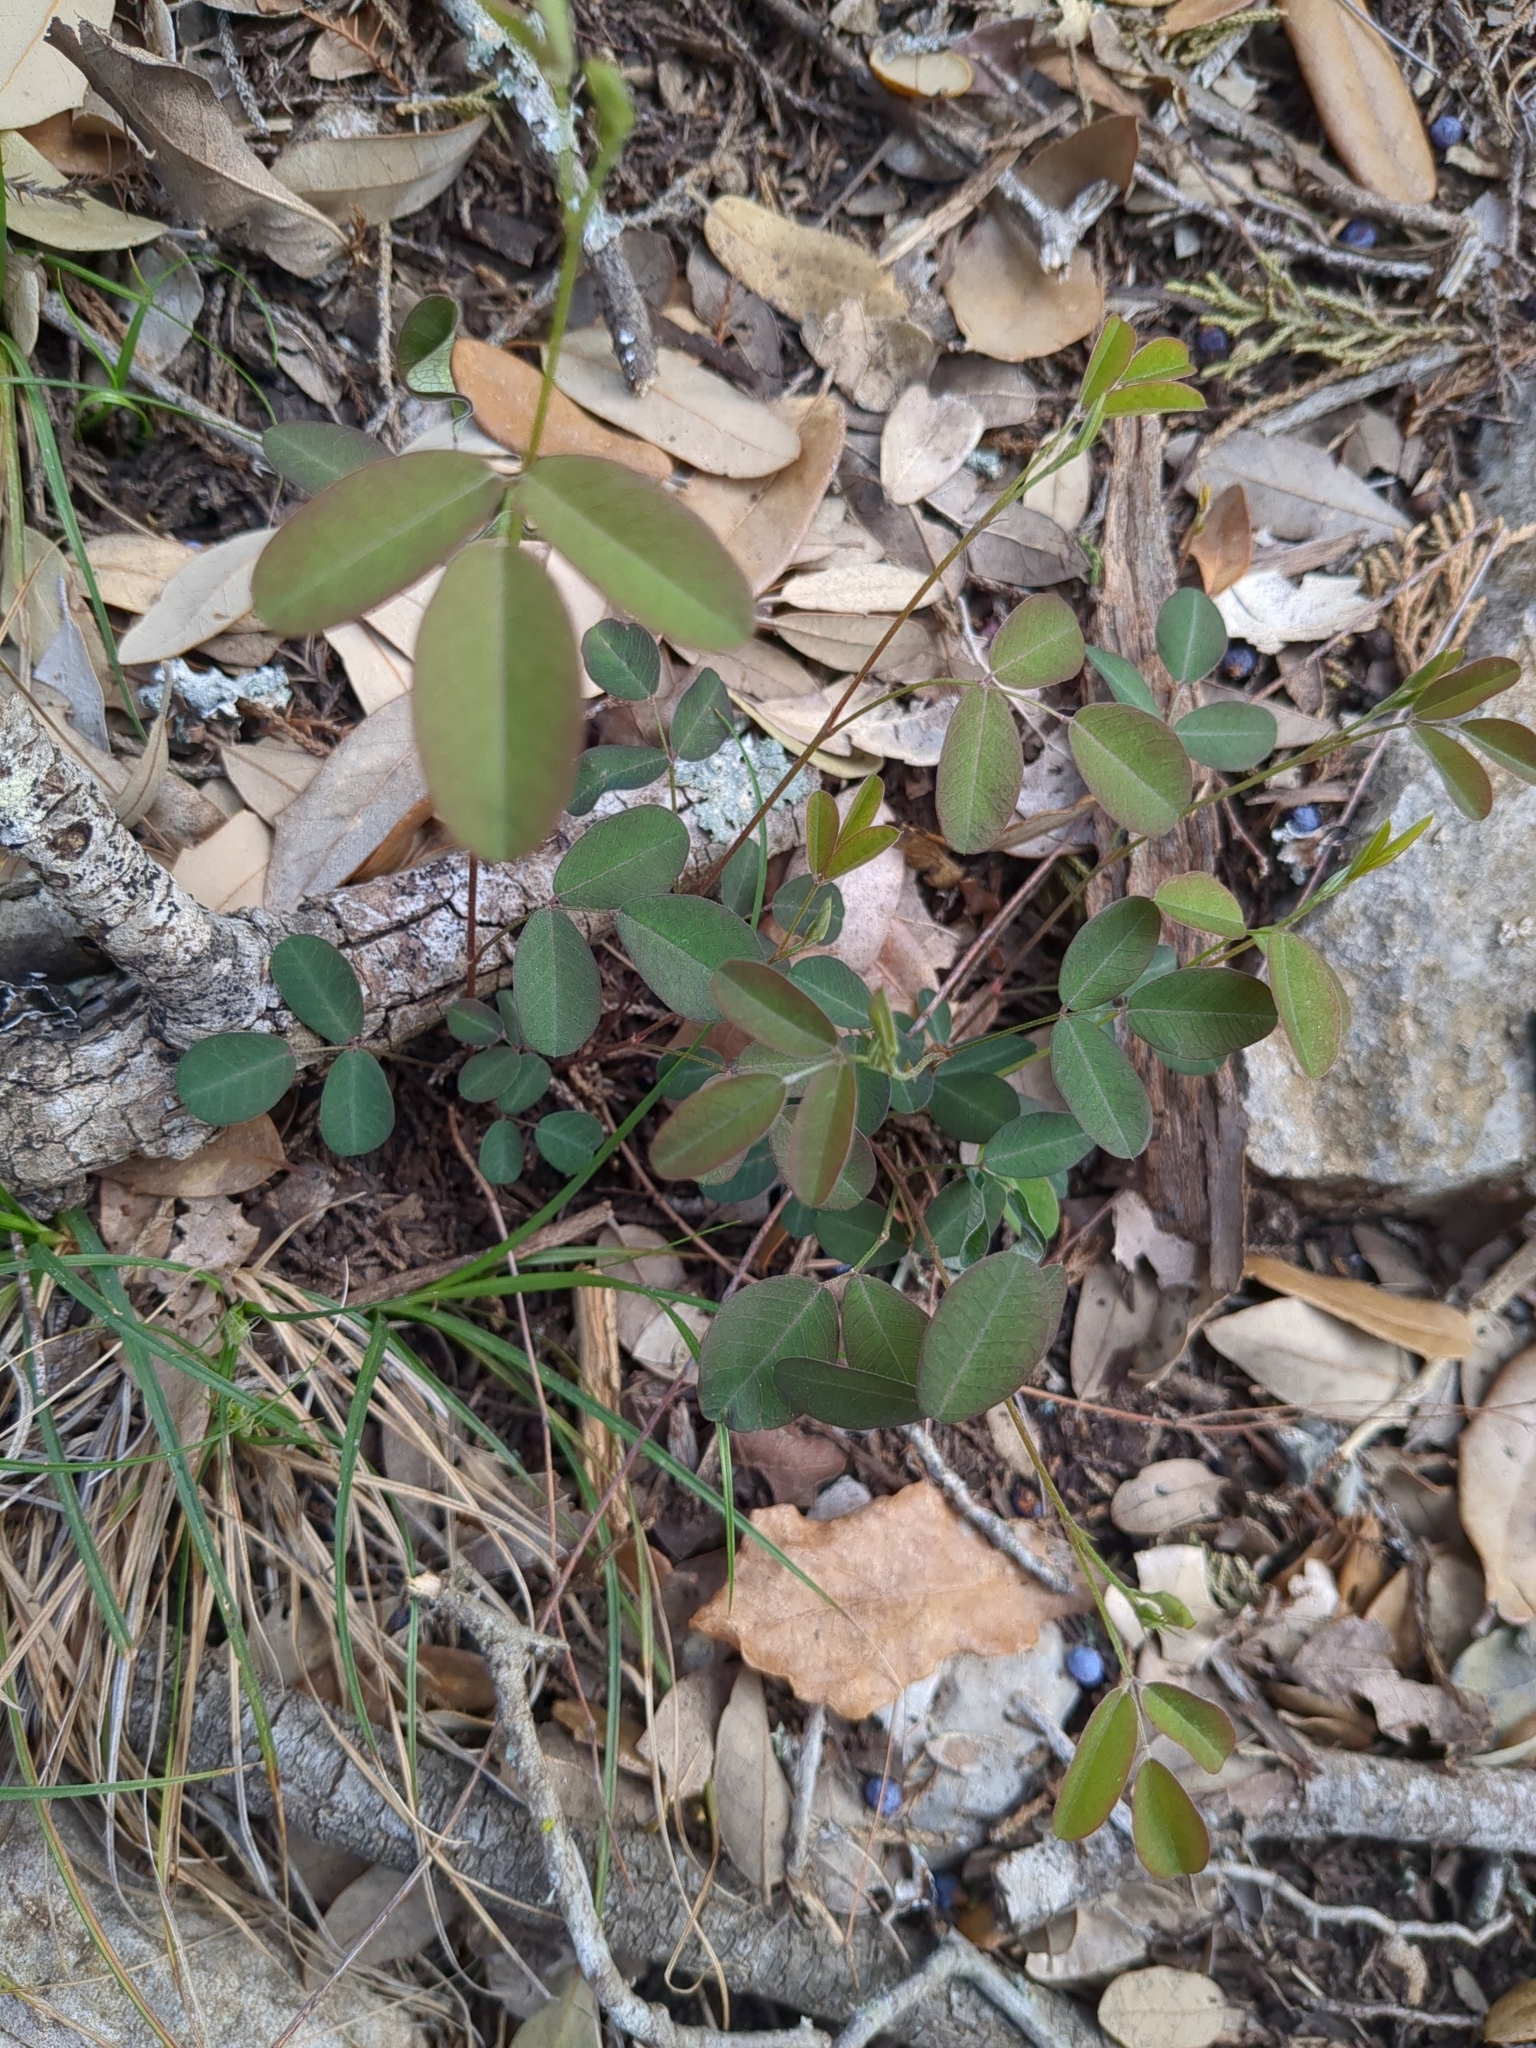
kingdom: Plantae
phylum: Tracheophyta
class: Magnoliopsida
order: Fabales
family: Fabaceae
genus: Lespedeza
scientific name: Lespedeza texana
